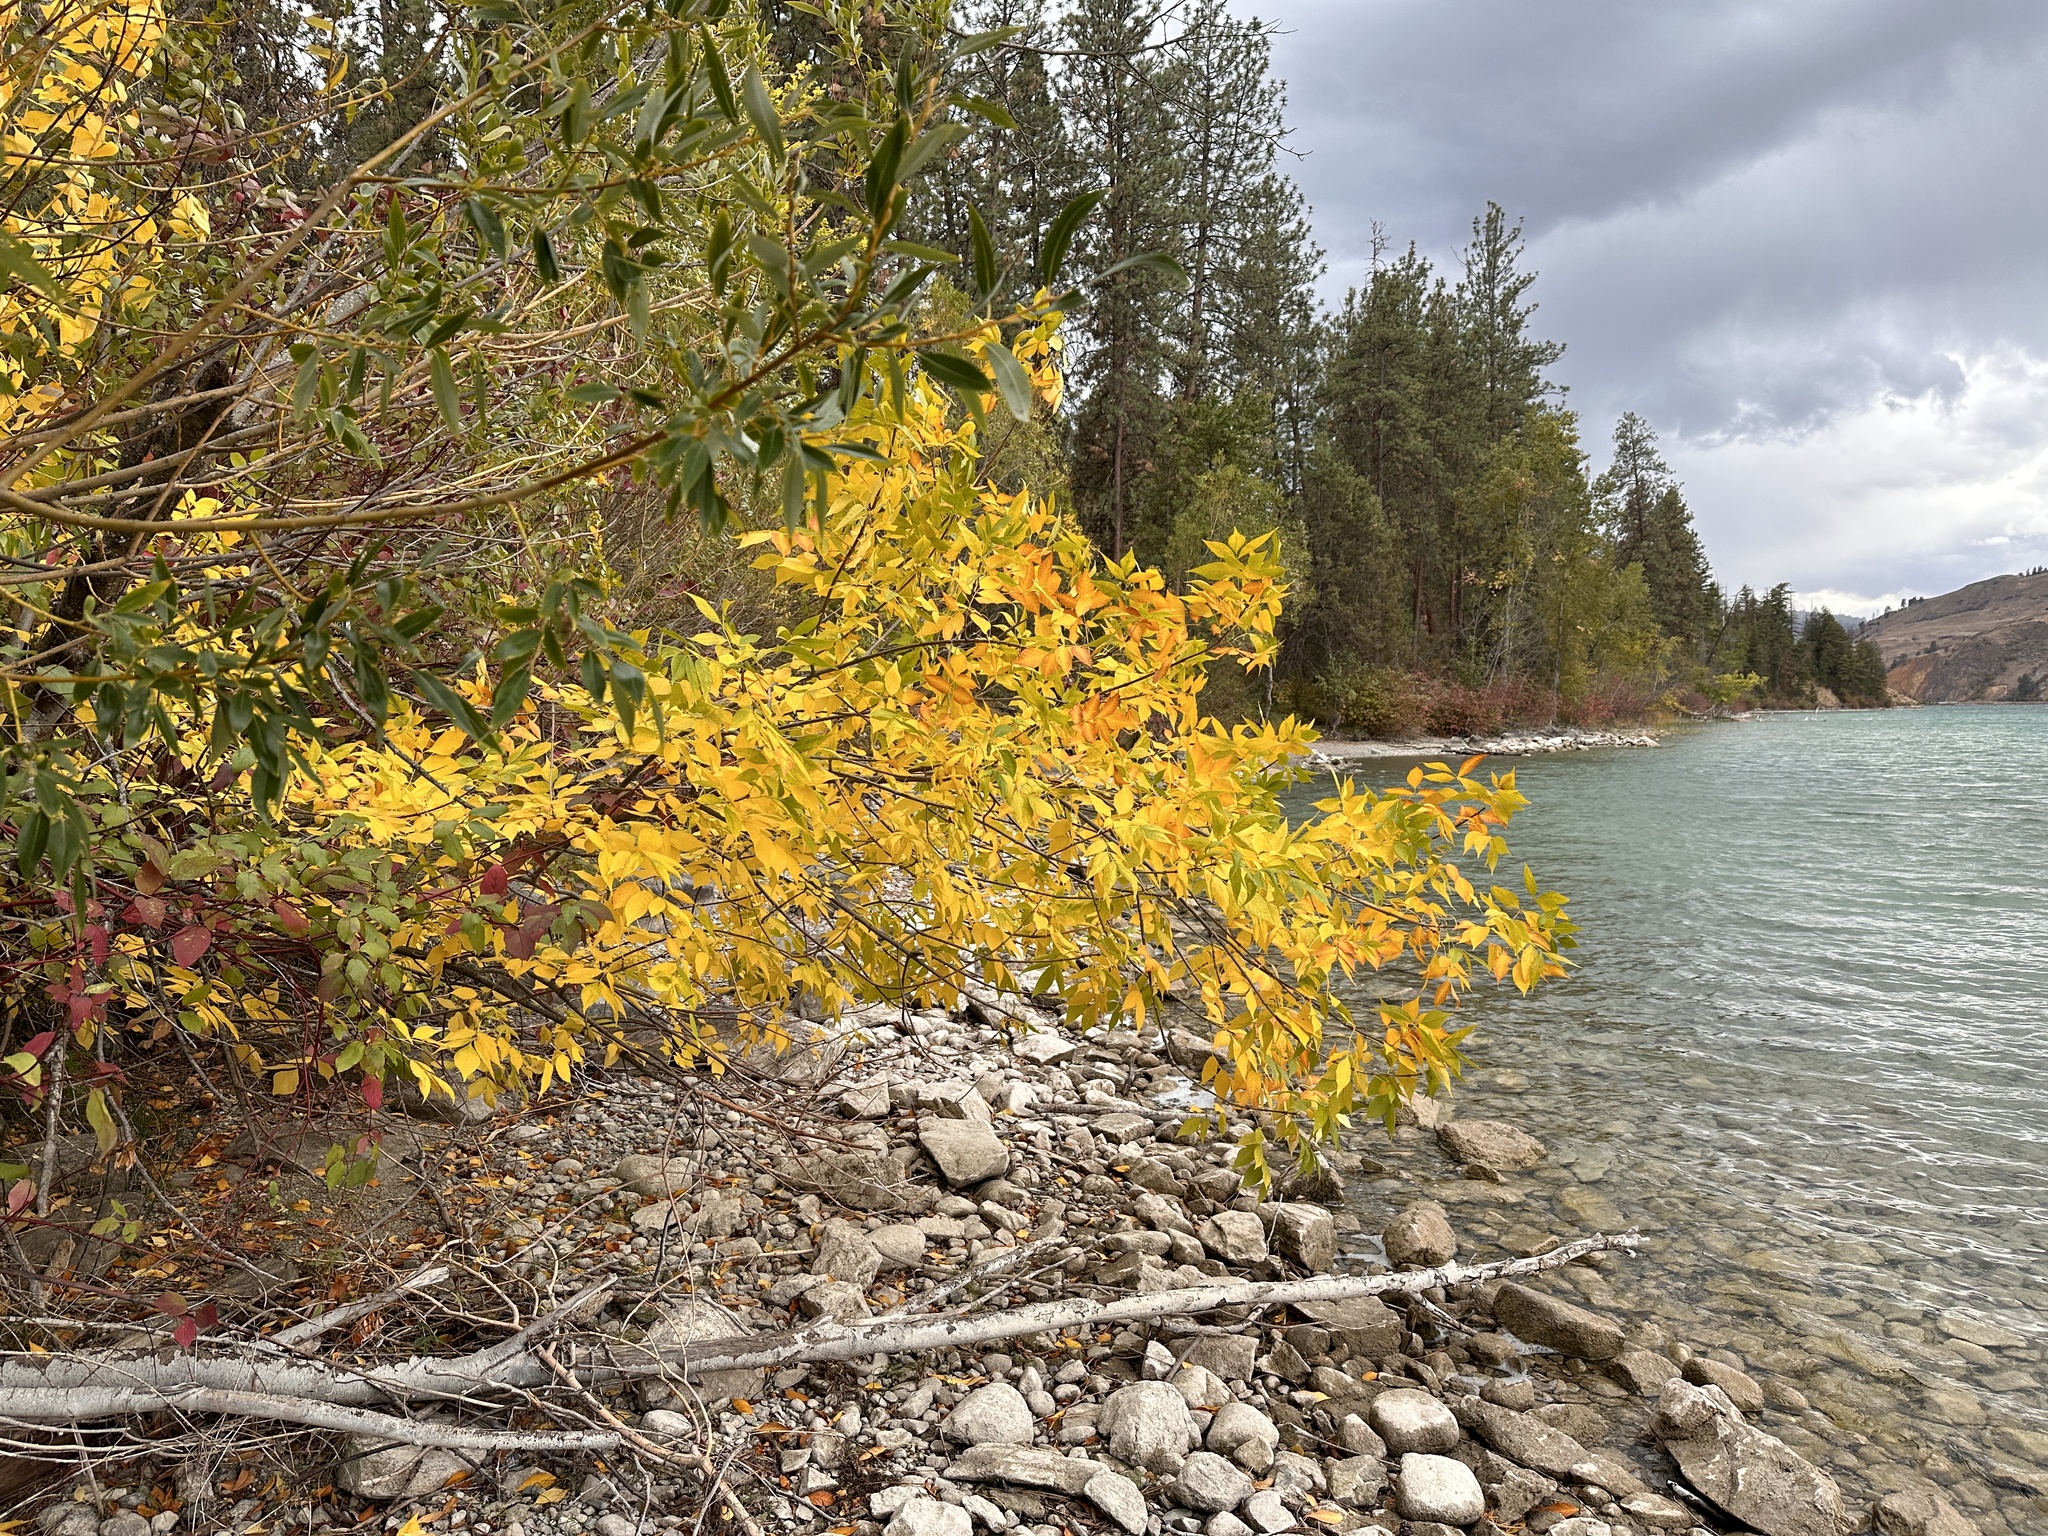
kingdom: Plantae
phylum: Tracheophyta
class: Magnoliopsida
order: Lamiales
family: Oleaceae
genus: Fraxinus
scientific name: Fraxinus pennsylvanica
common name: Green ash
